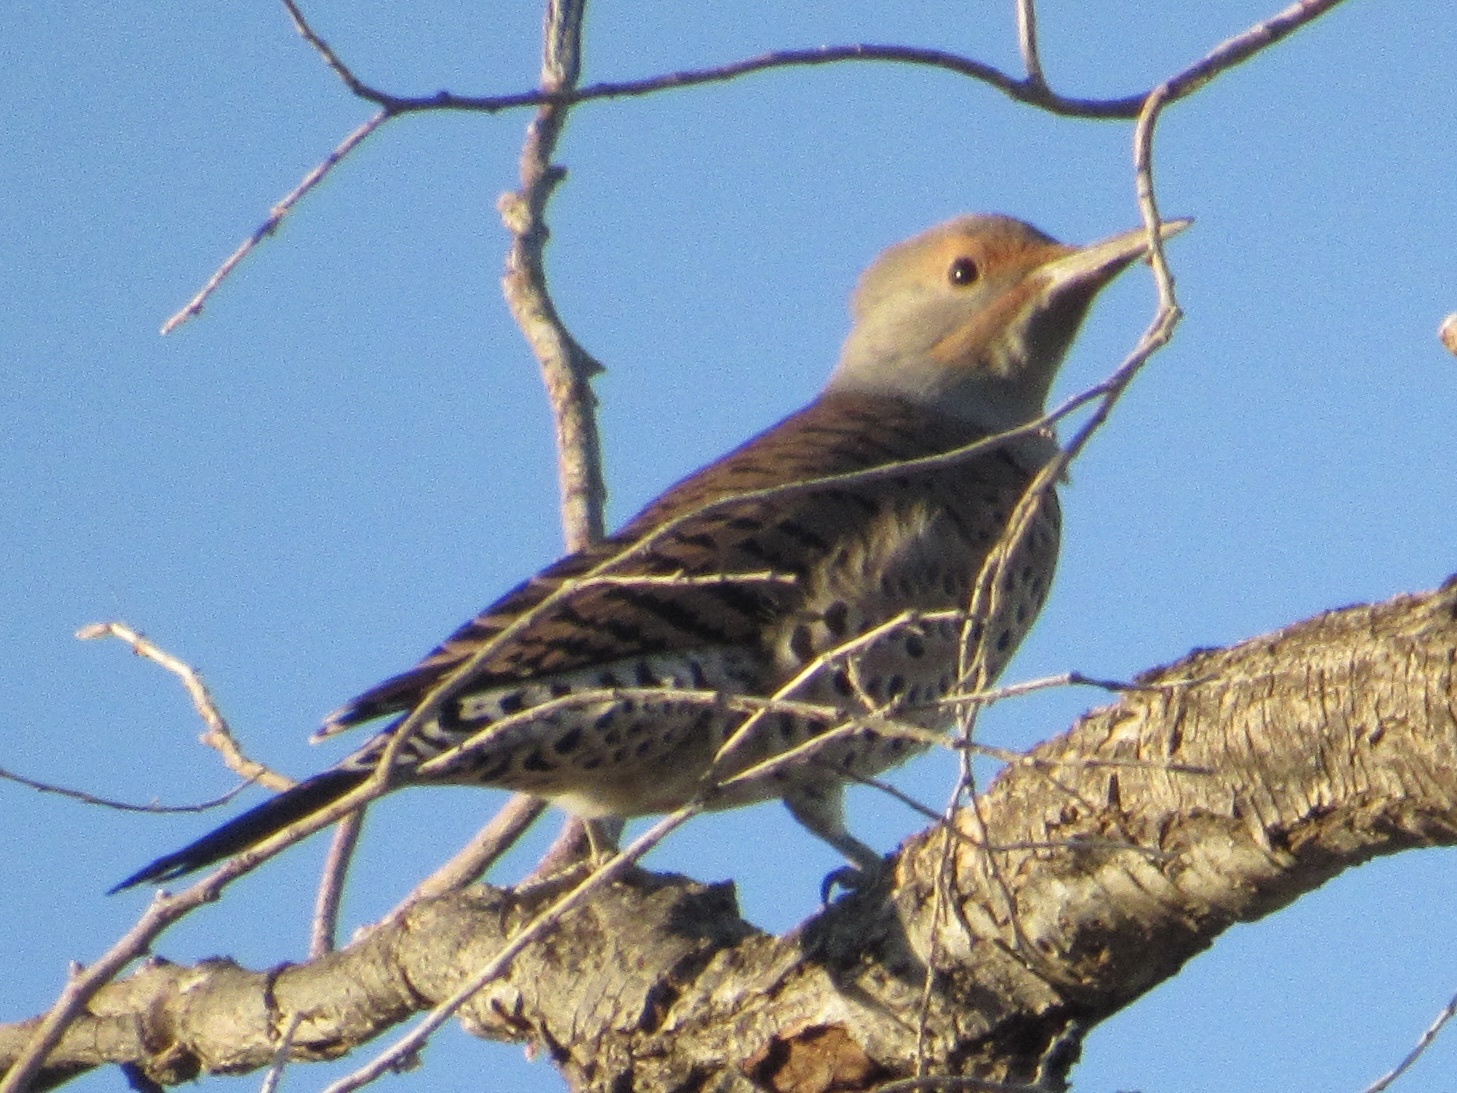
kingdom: Animalia
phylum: Chordata
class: Aves
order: Piciformes
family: Picidae
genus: Colaptes
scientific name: Colaptes auratus
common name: Northern flicker
